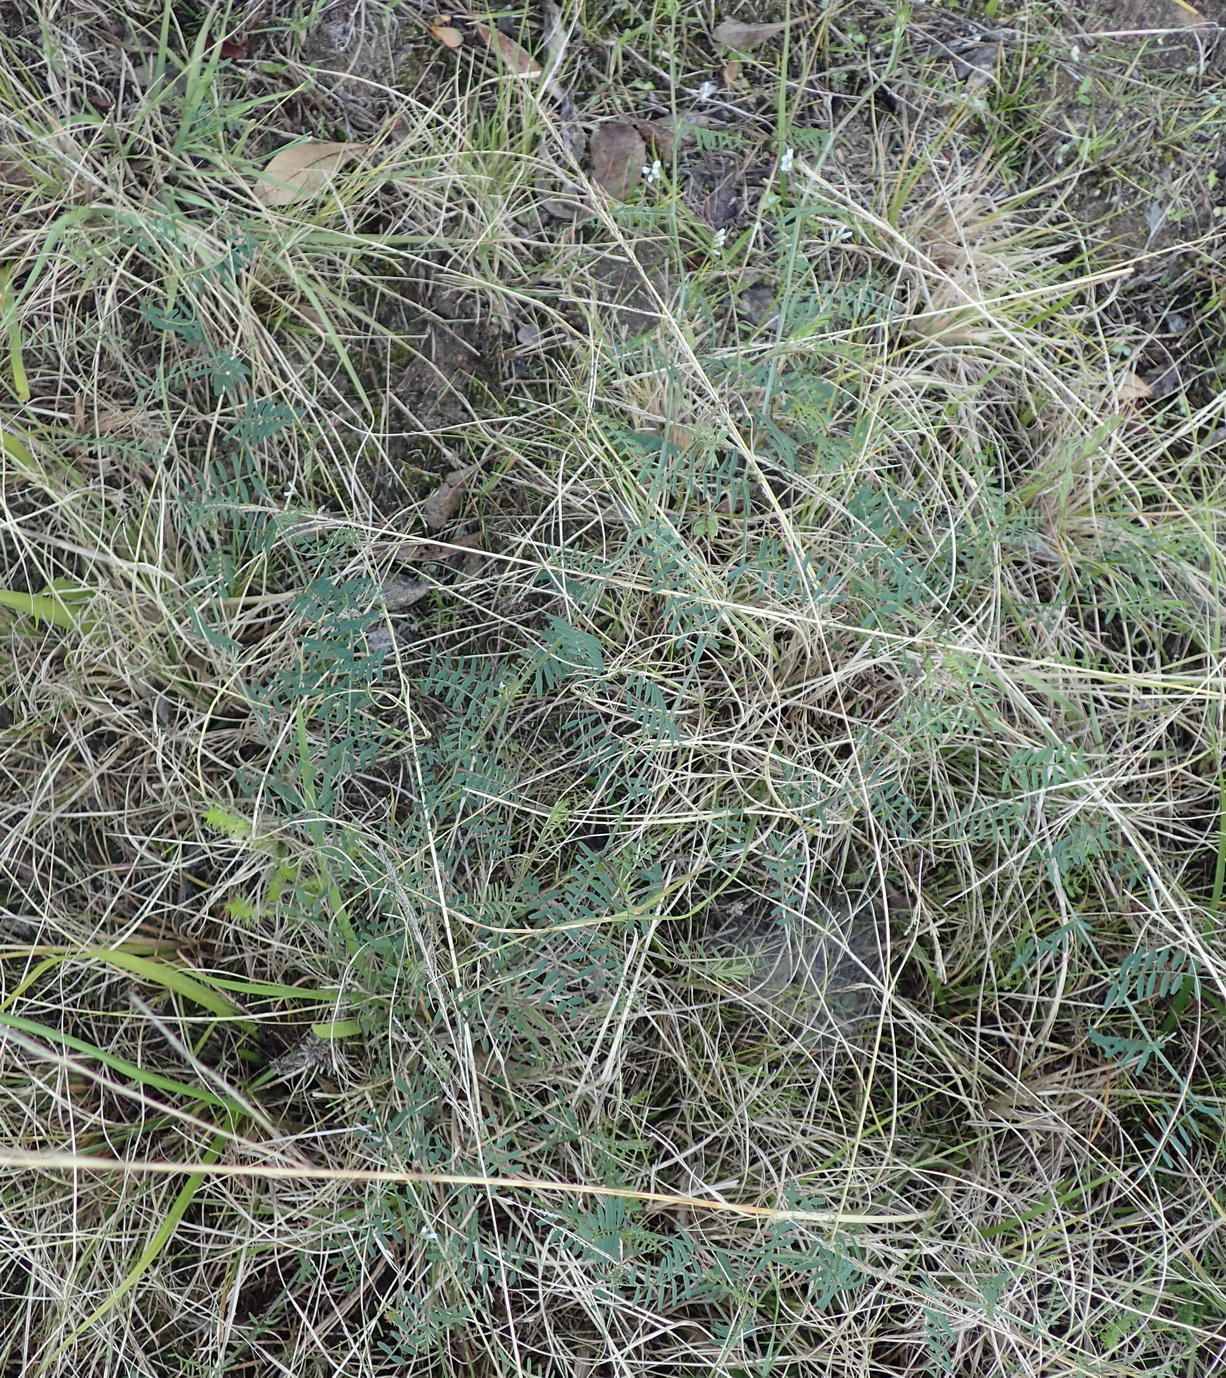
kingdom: Plantae
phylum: Tracheophyta
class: Magnoliopsida
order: Fabales
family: Fabaceae
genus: Vicia
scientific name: Vicia hirsuta
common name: Tiny vetch
